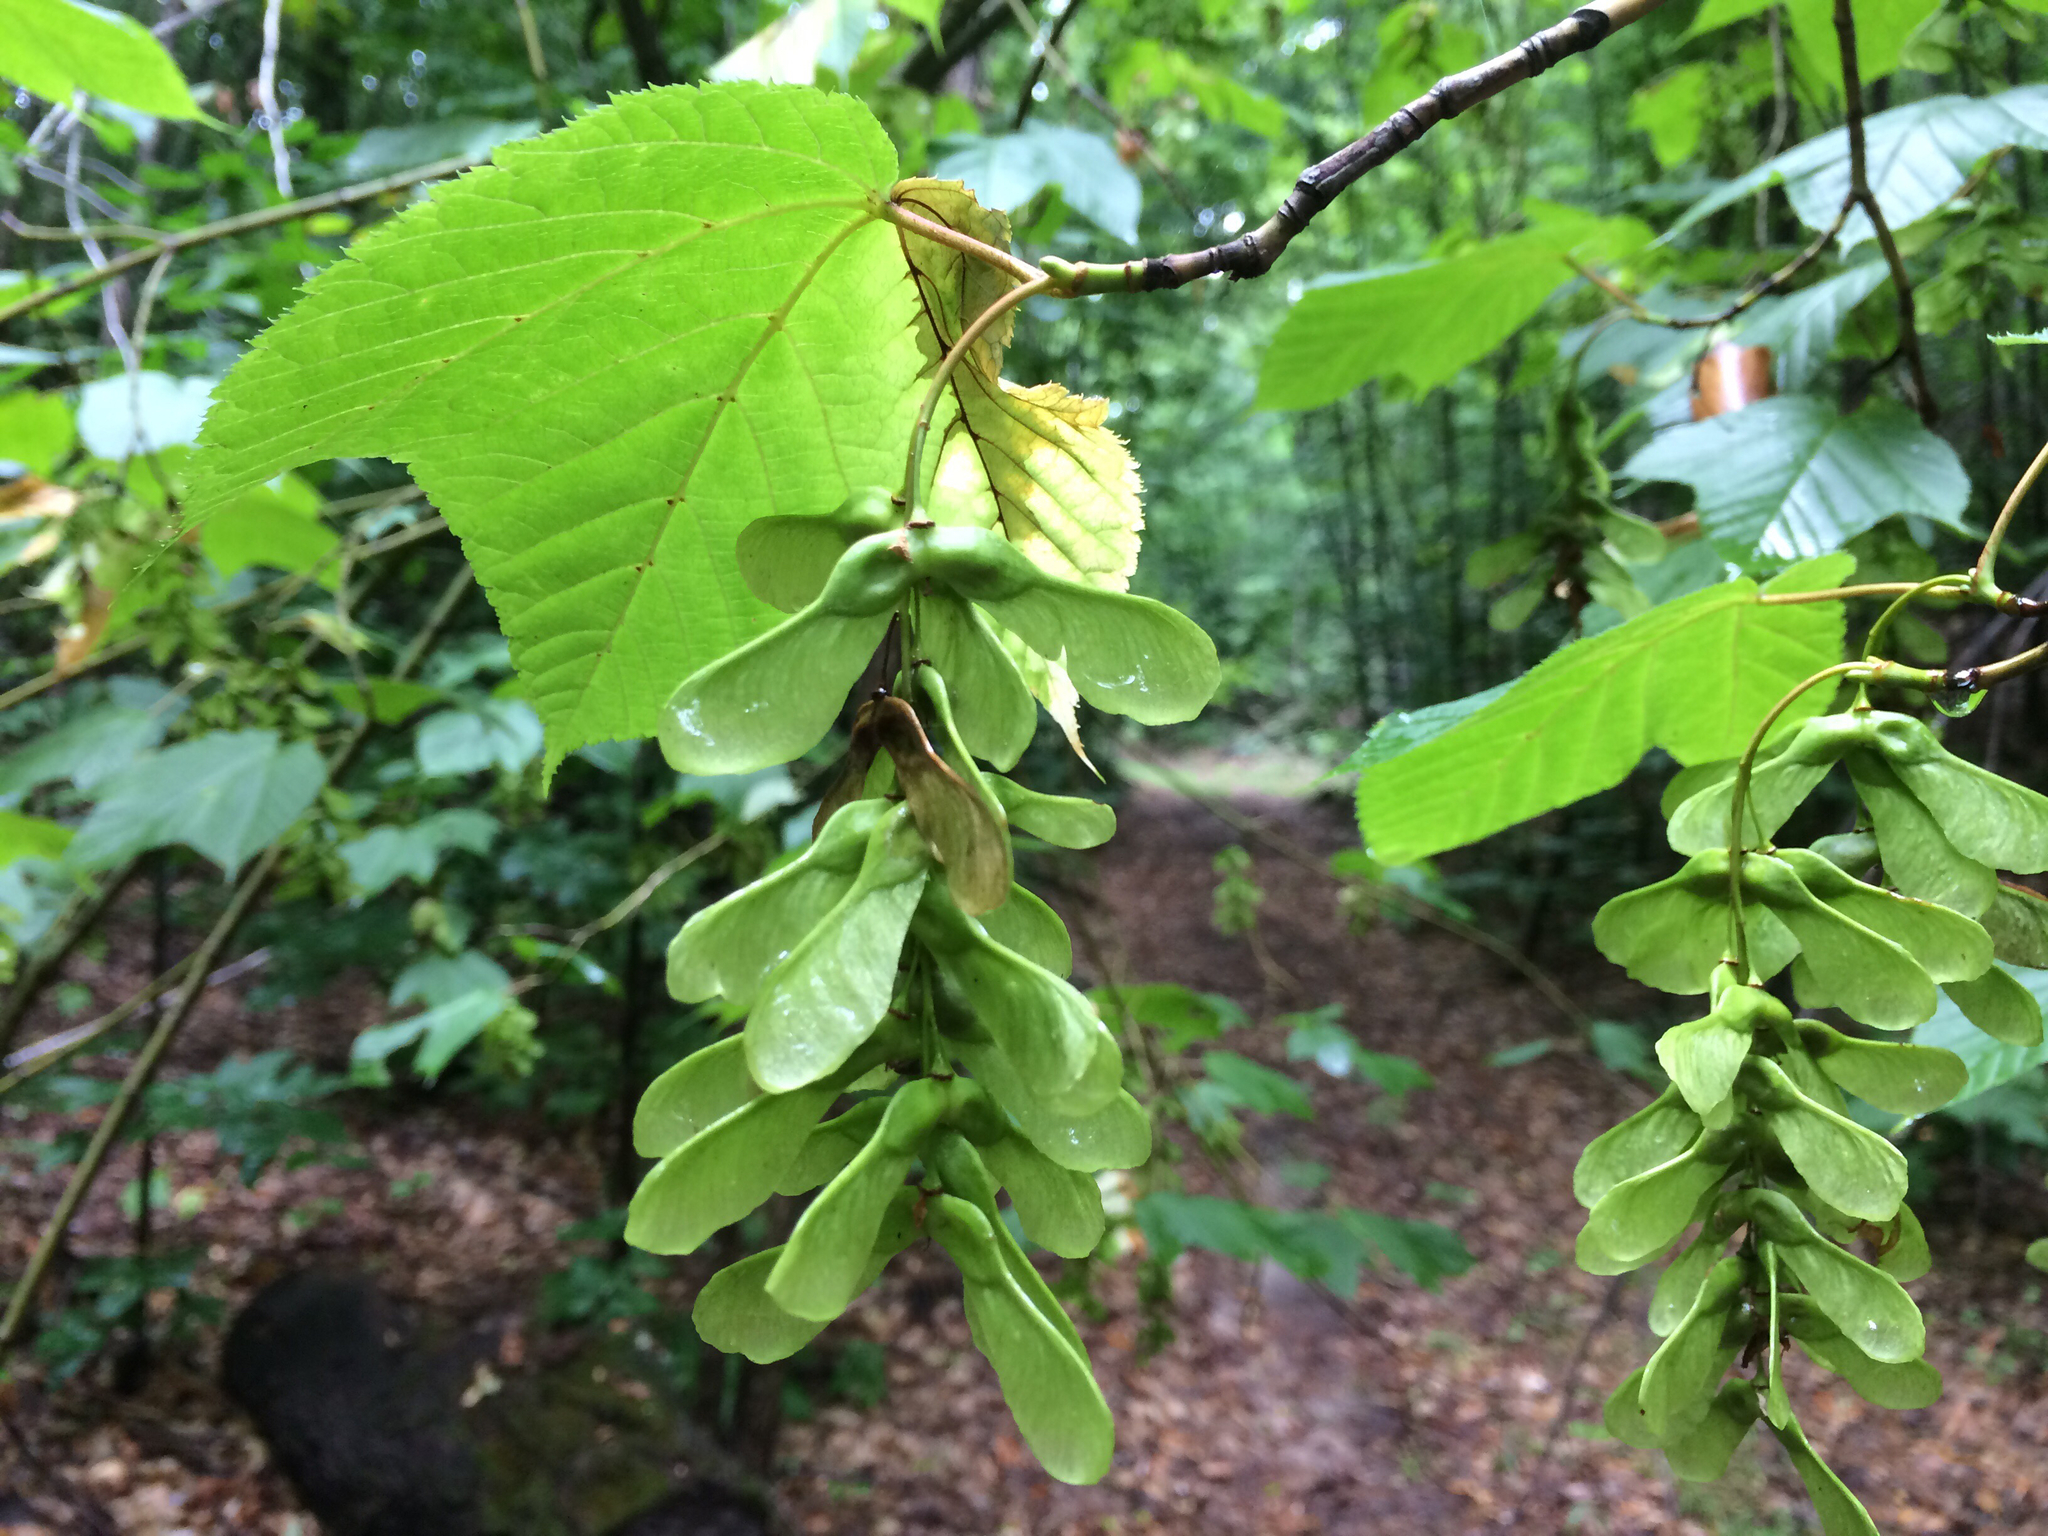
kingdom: Plantae
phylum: Tracheophyta
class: Magnoliopsida
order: Sapindales
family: Sapindaceae
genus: Acer
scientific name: Acer pensylvanicum
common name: Moosewood
